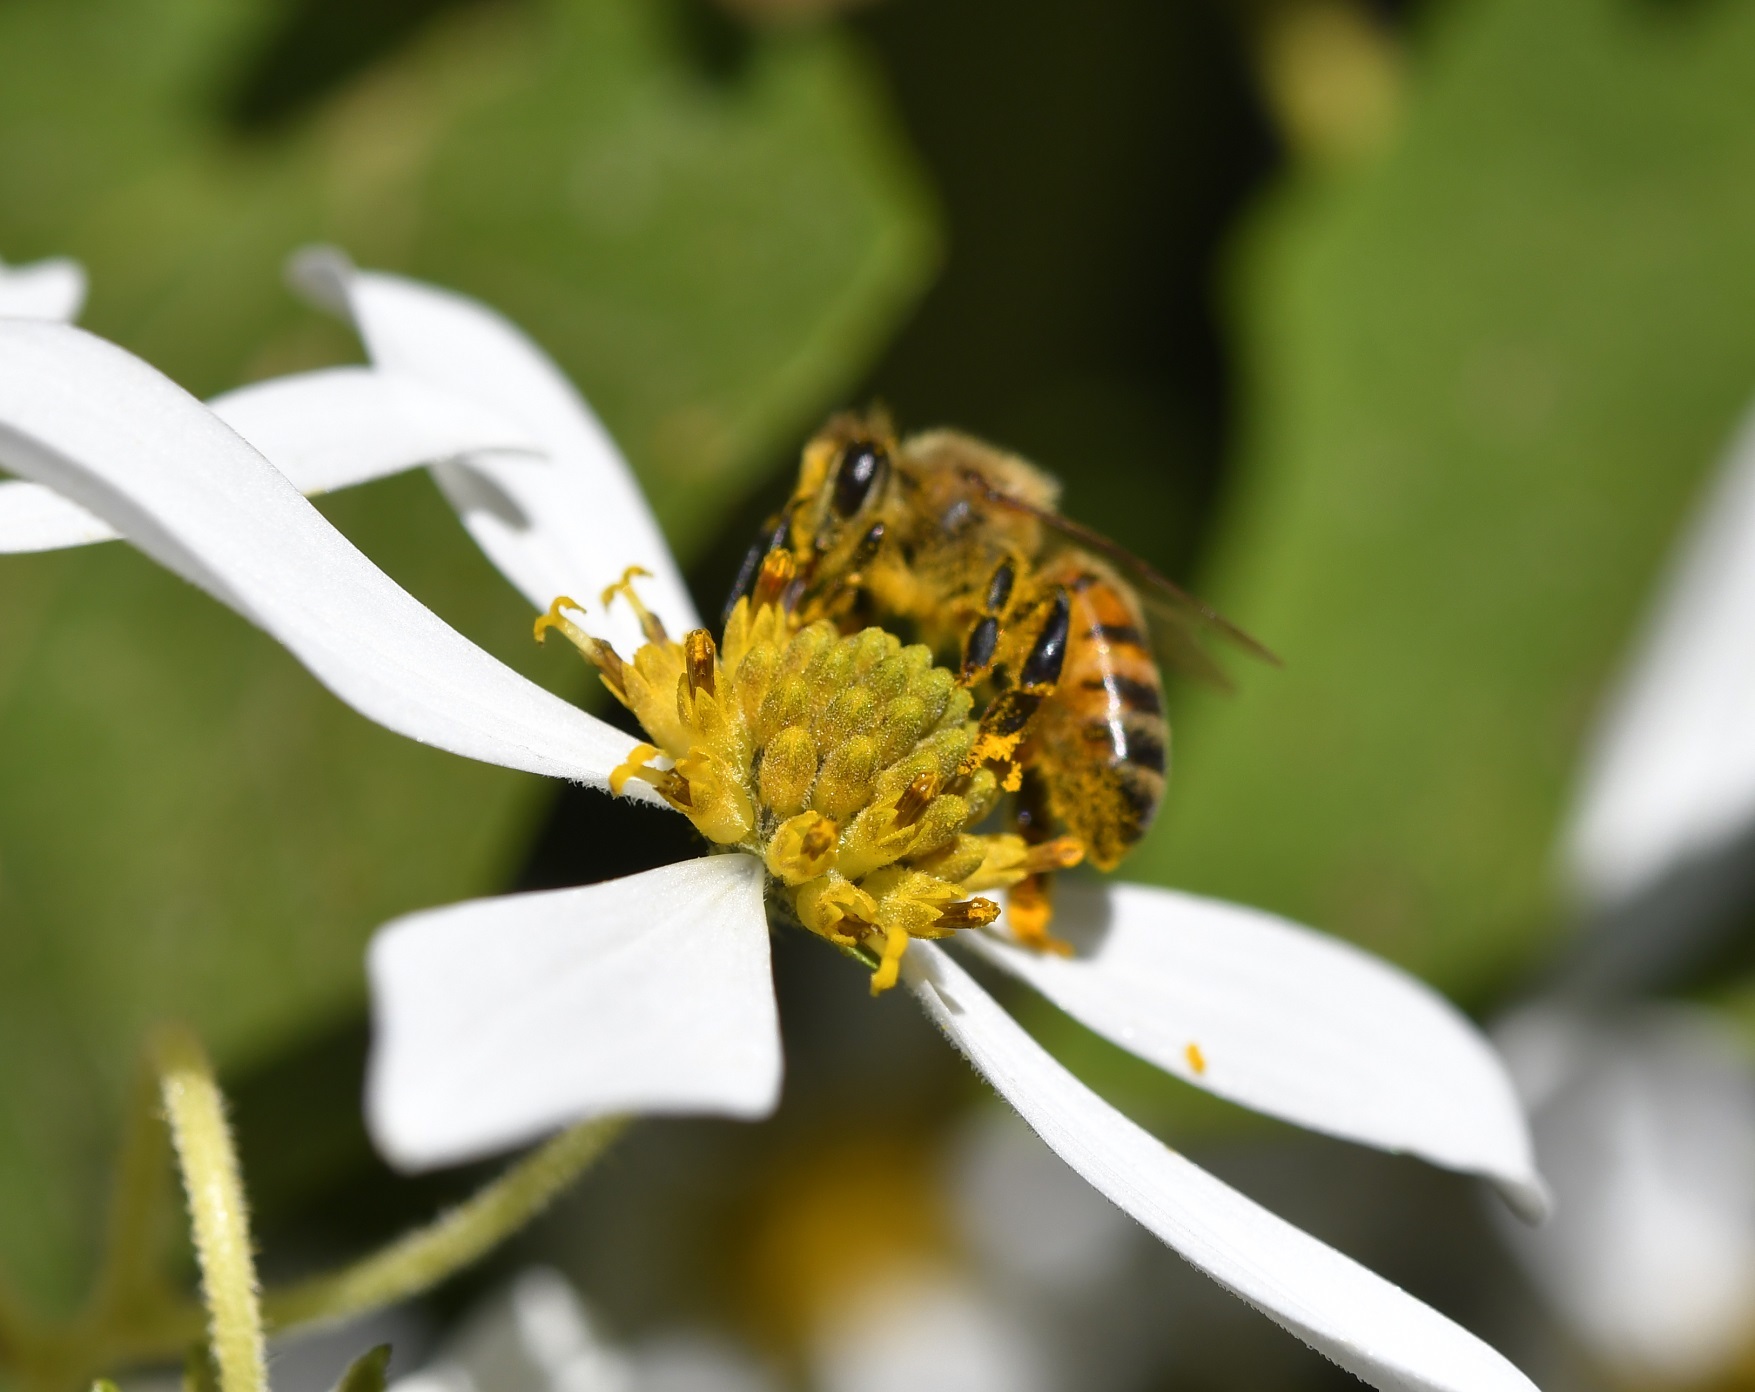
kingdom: Animalia
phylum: Arthropoda
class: Insecta
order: Hymenoptera
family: Apidae
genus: Apis
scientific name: Apis mellifera
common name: Honey bee
